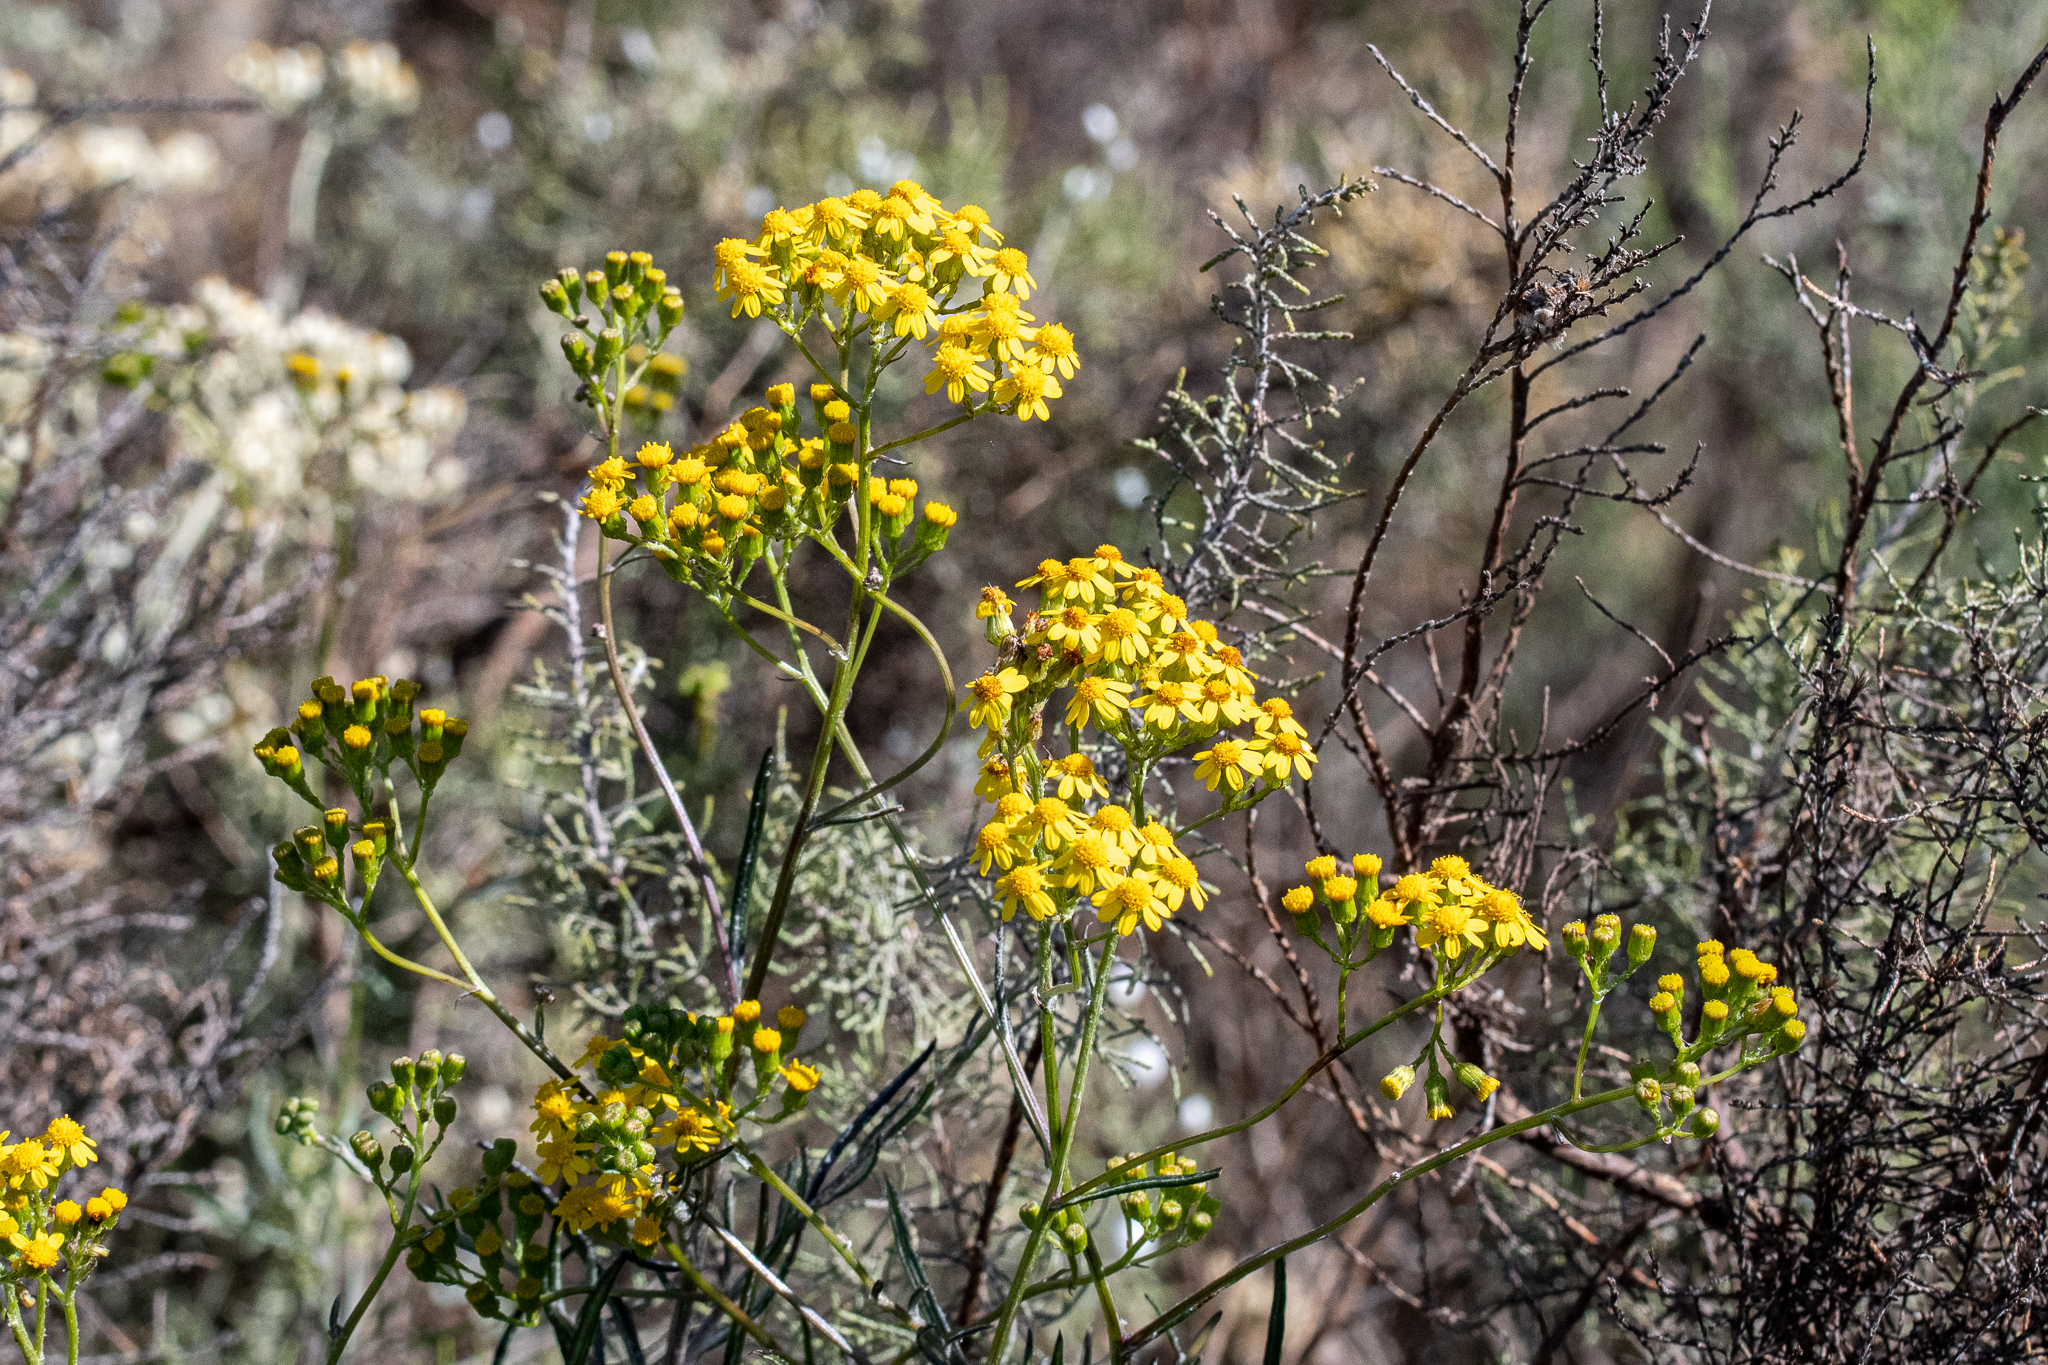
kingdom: Plantae
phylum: Tracheophyta
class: Magnoliopsida
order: Asterales
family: Asteraceae
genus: Senecio
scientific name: Senecio burchellii
